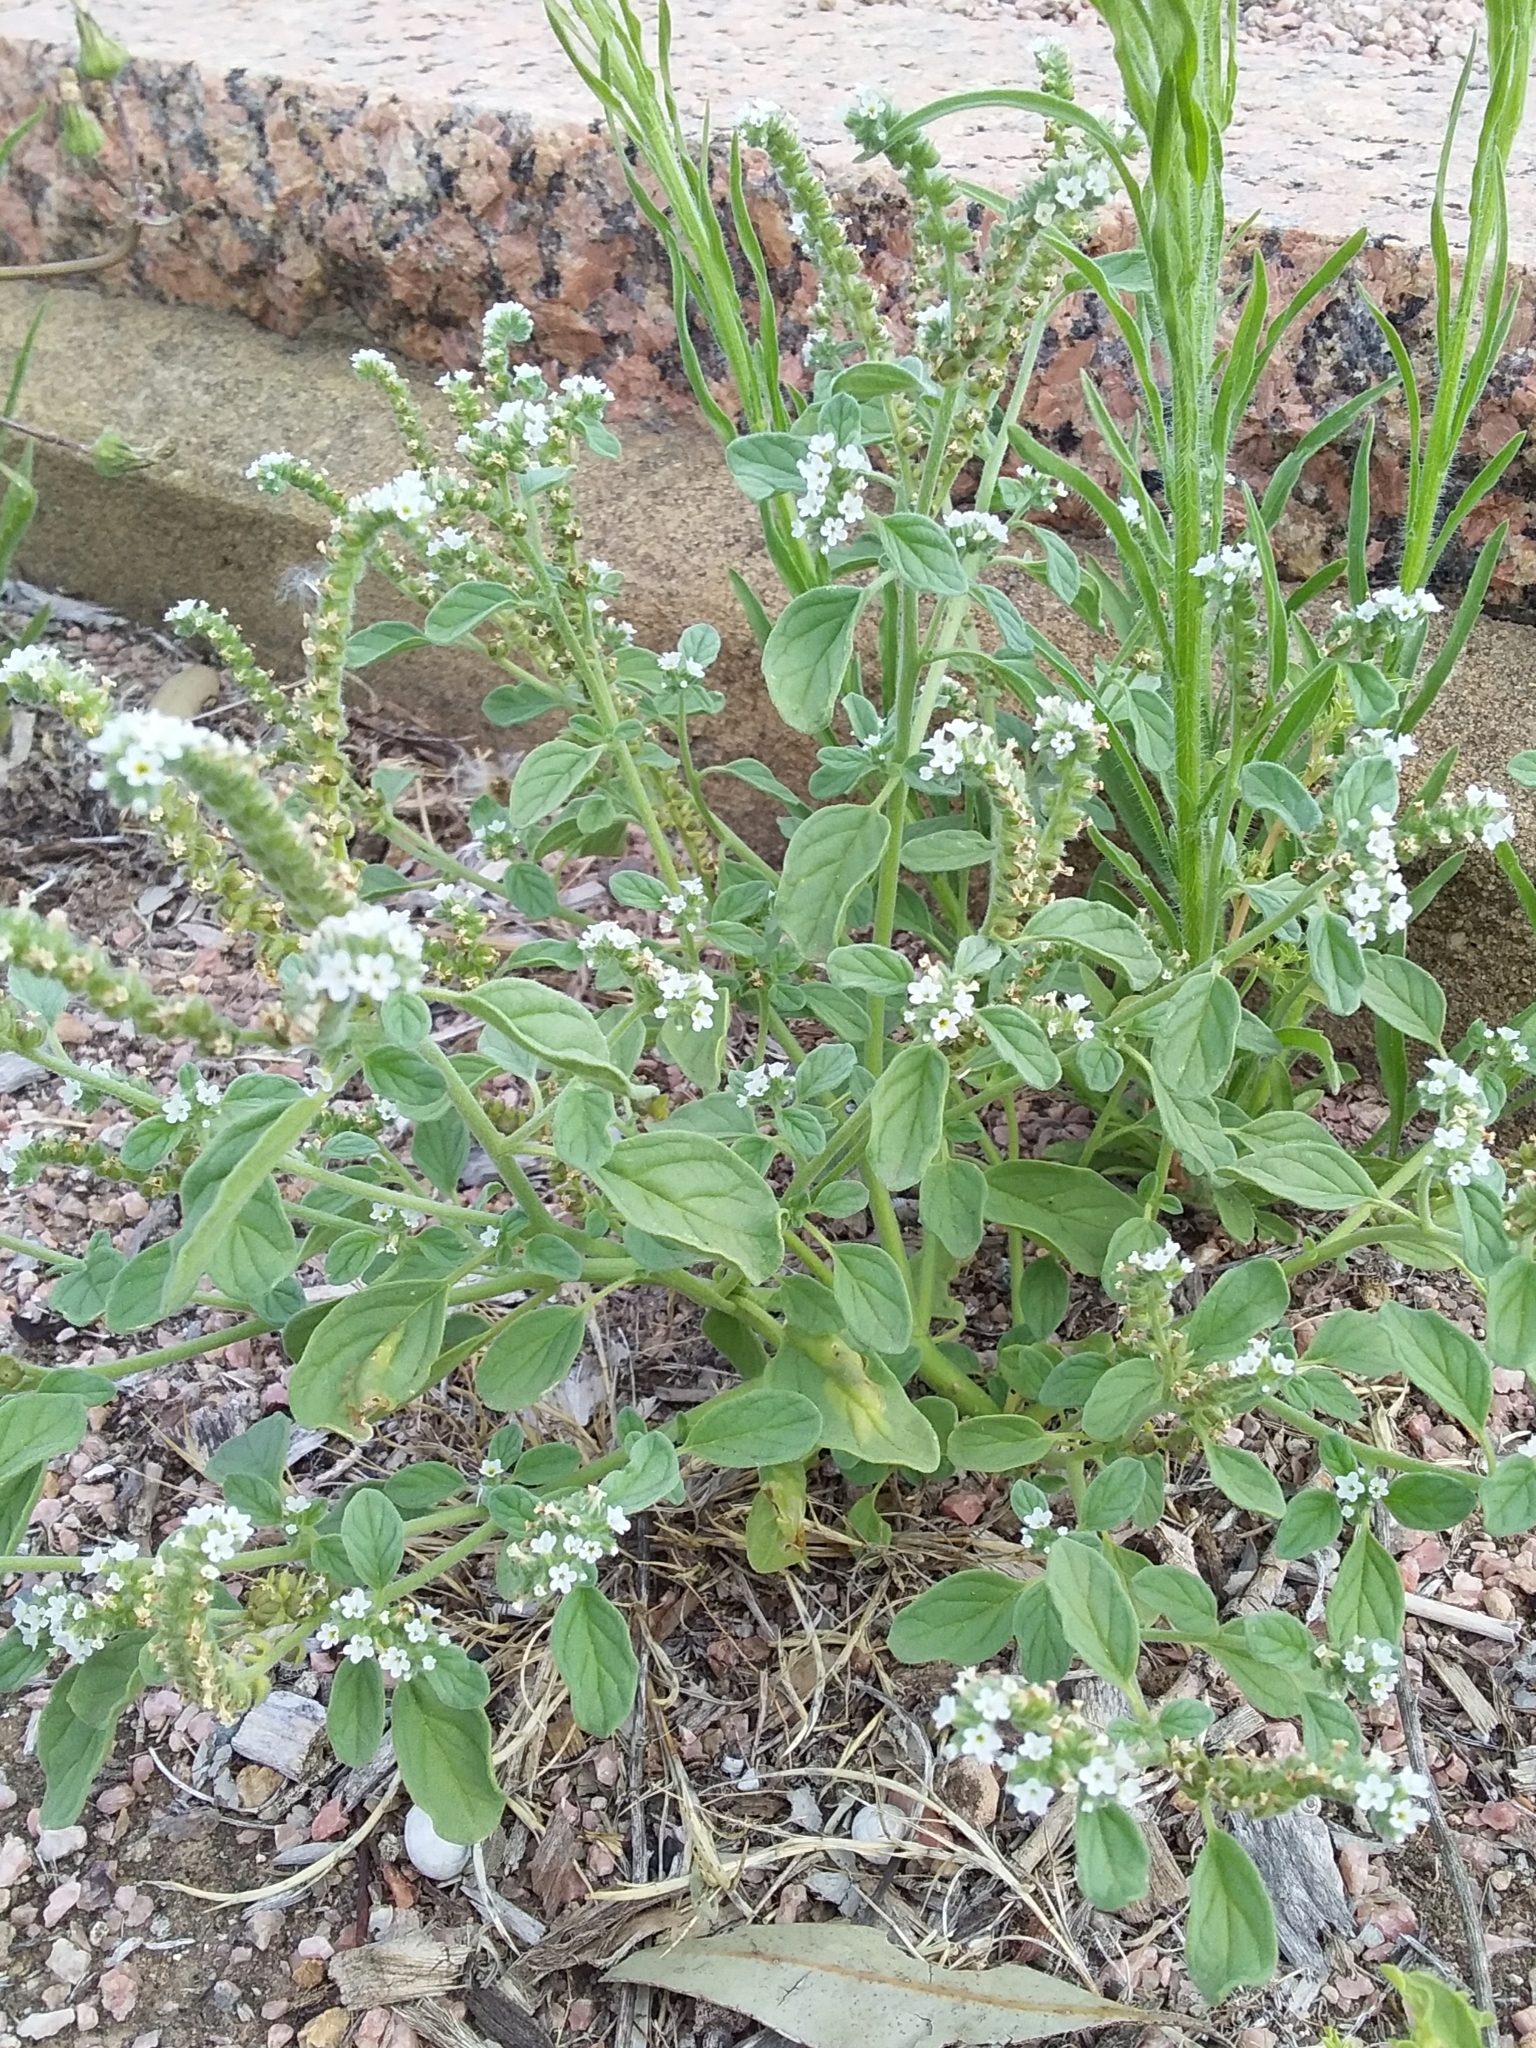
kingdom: Plantae
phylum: Tracheophyta
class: Magnoliopsida
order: Boraginales
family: Heliotropiaceae
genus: Heliotropium
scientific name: Heliotropium europaeum
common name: European heliotrope
